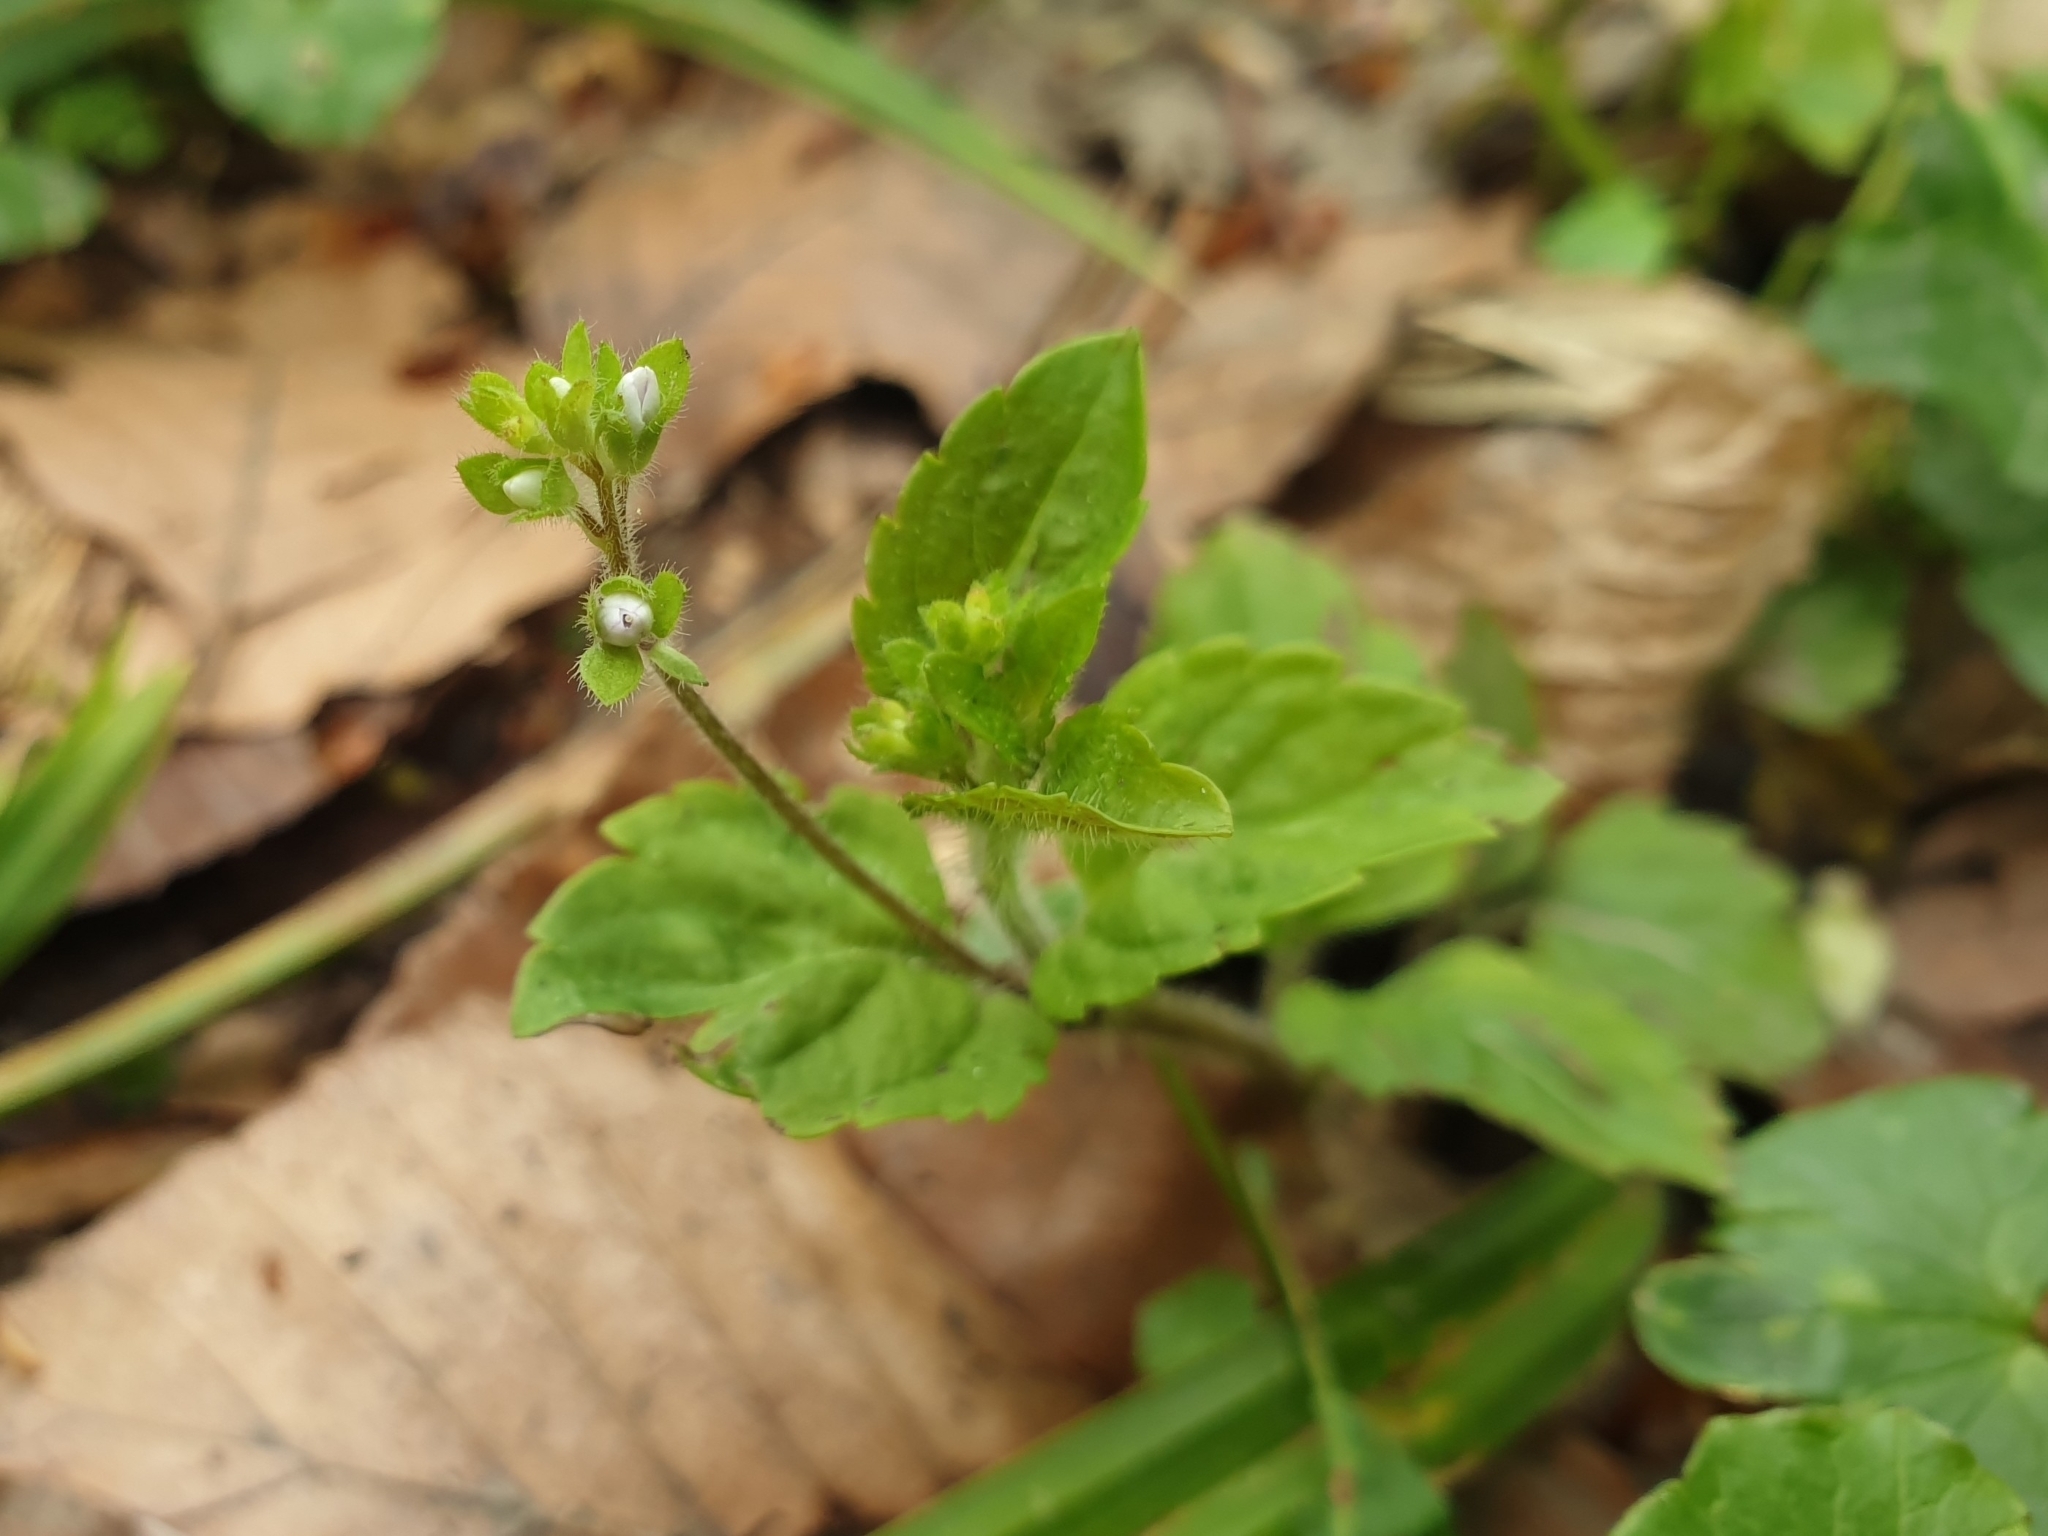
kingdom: Plantae
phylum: Tracheophyta
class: Magnoliopsida
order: Lamiales
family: Plantaginaceae
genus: Veronica
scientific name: Veronica montana
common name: Wood speedwell
